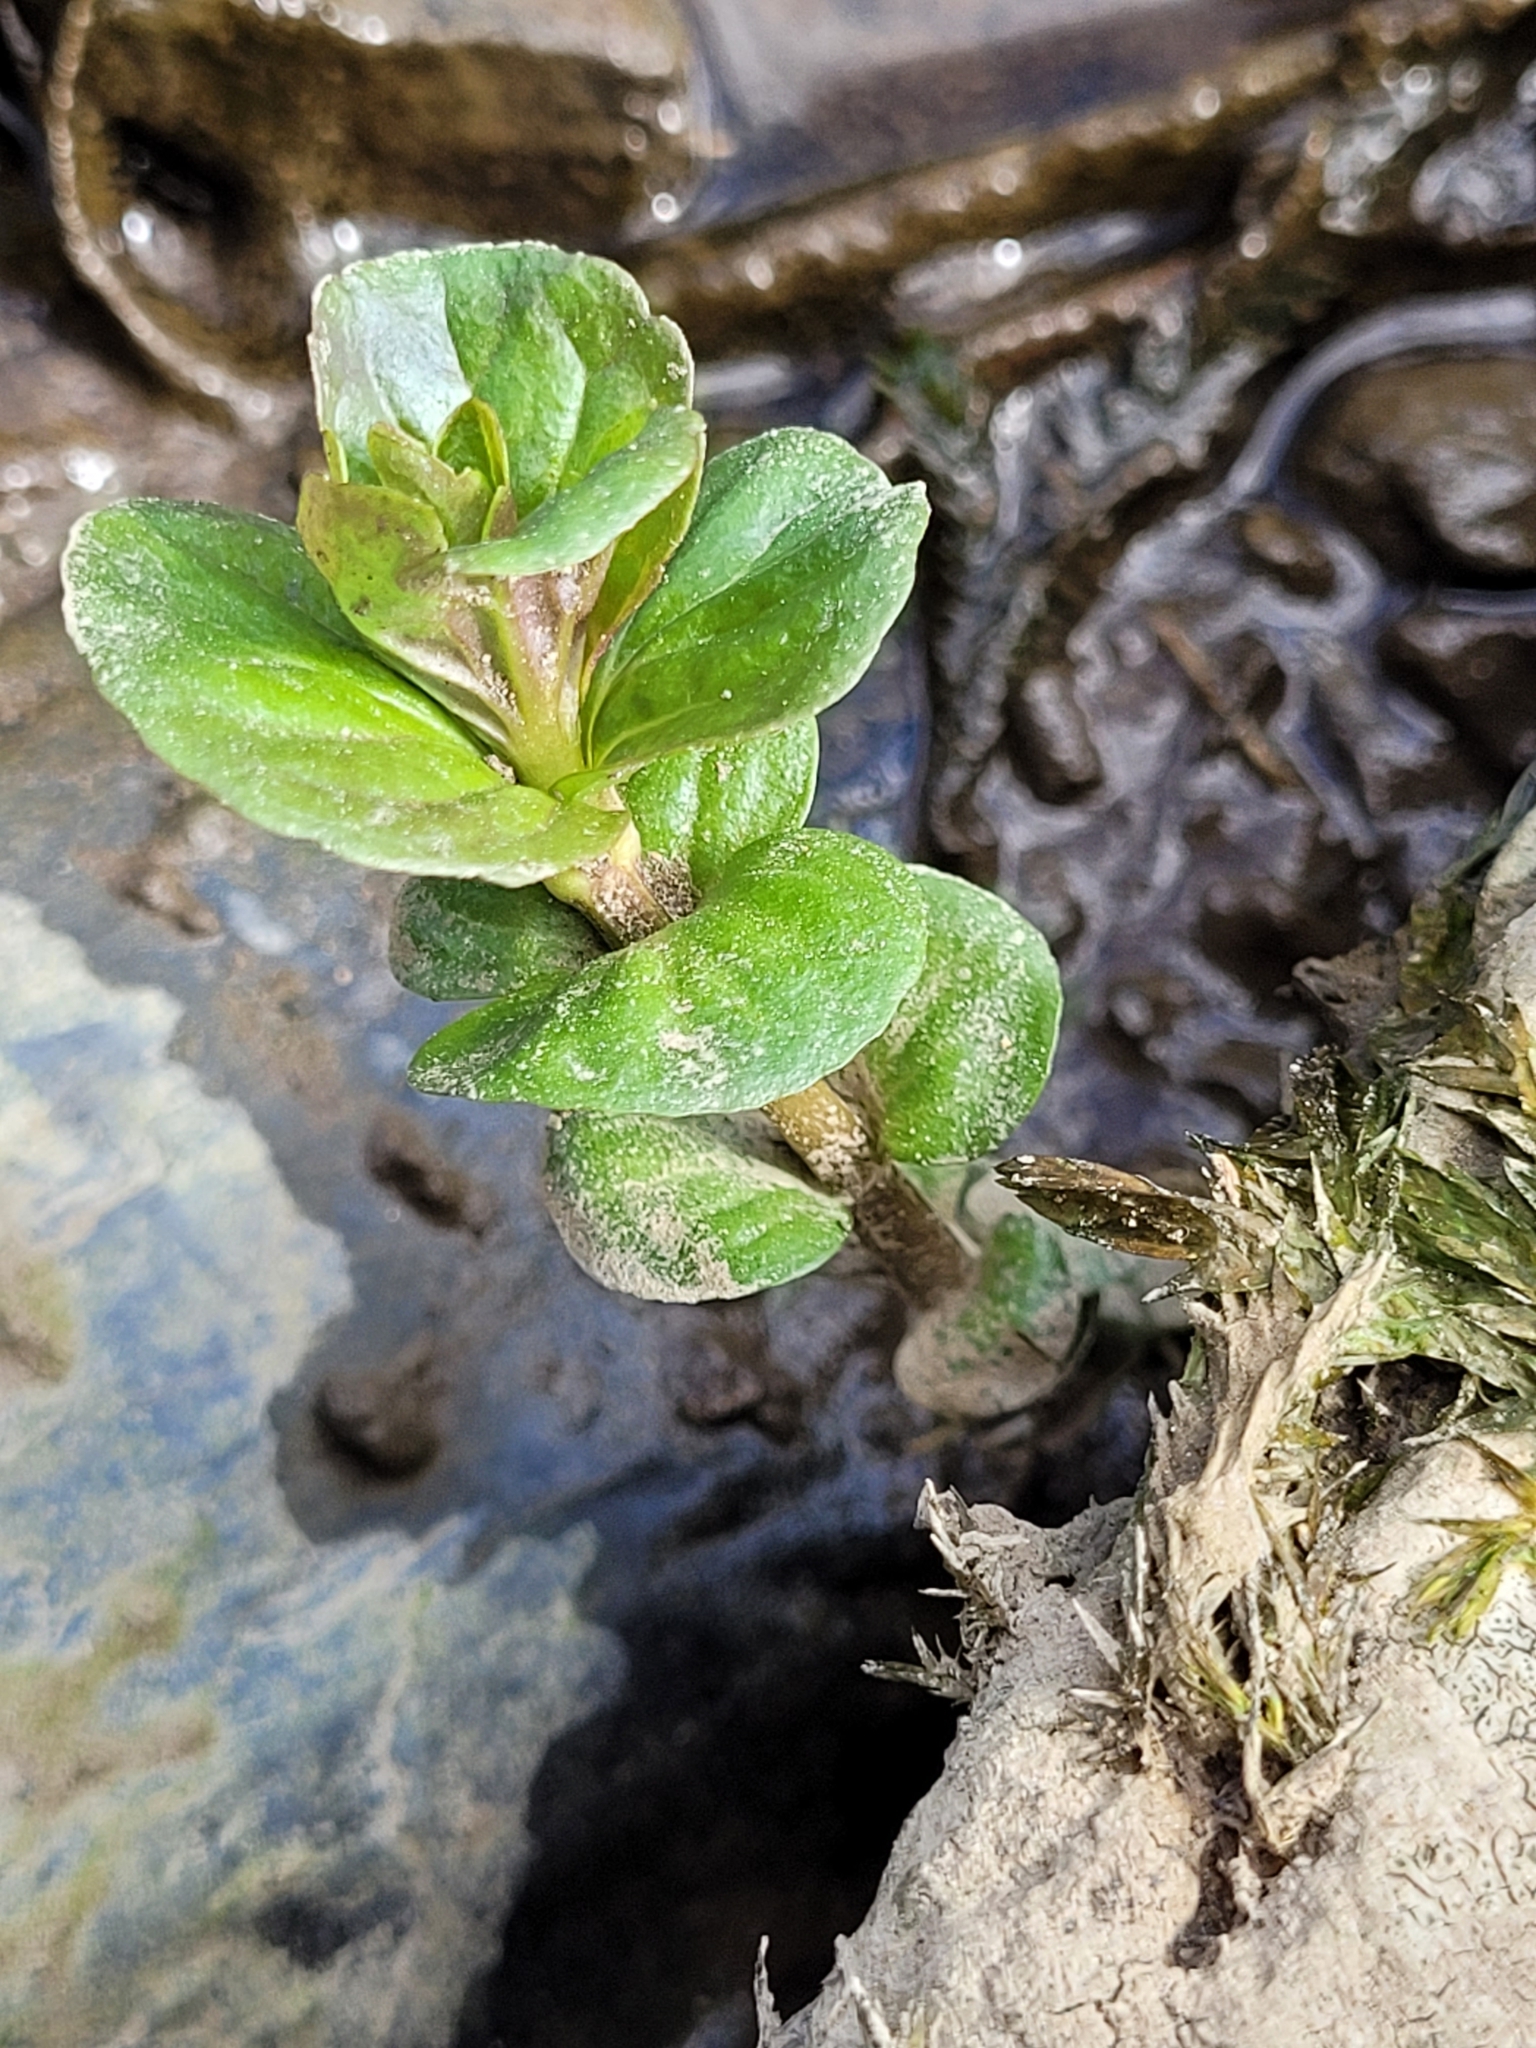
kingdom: Plantae
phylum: Tracheophyta
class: Magnoliopsida
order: Lamiales
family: Plantaginaceae
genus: Veronica
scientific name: Veronica beccabunga
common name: Brooklime
